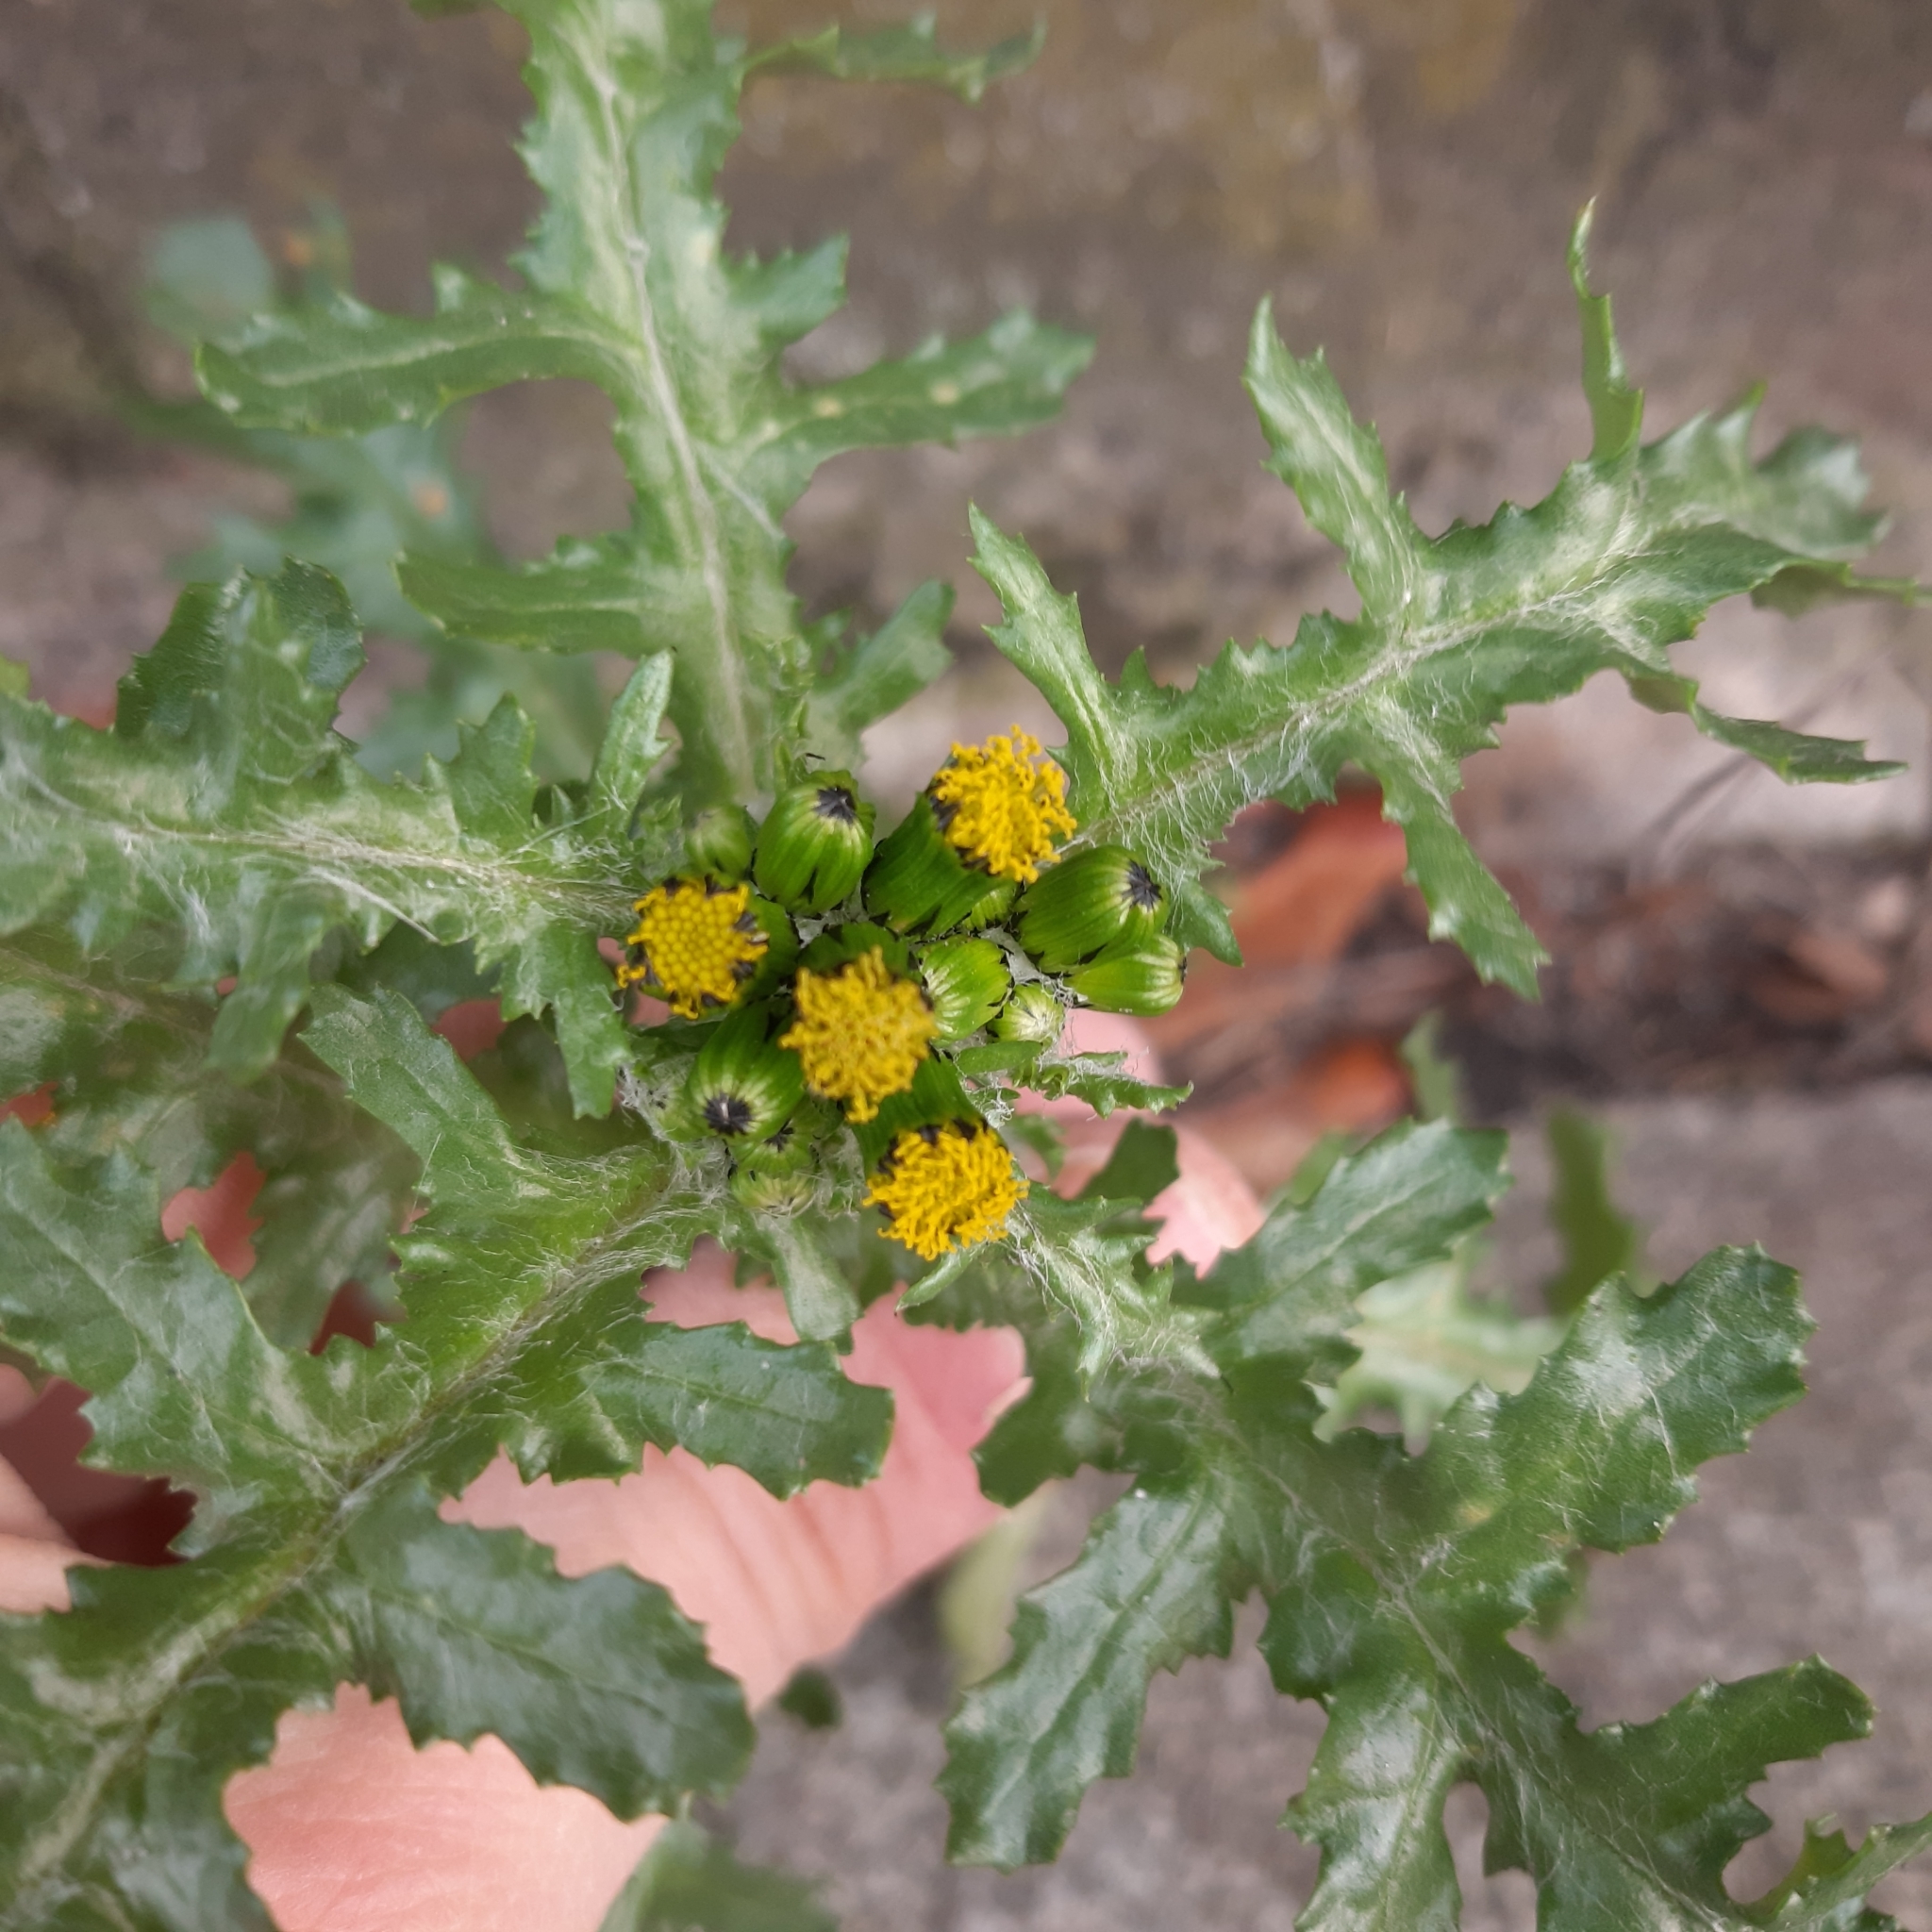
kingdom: Plantae
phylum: Tracheophyta
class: Magnoliopsida
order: Asterales
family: Asteraceae
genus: Senecio
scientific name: Senecio vulgaris
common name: Old-man-in-the-spring
